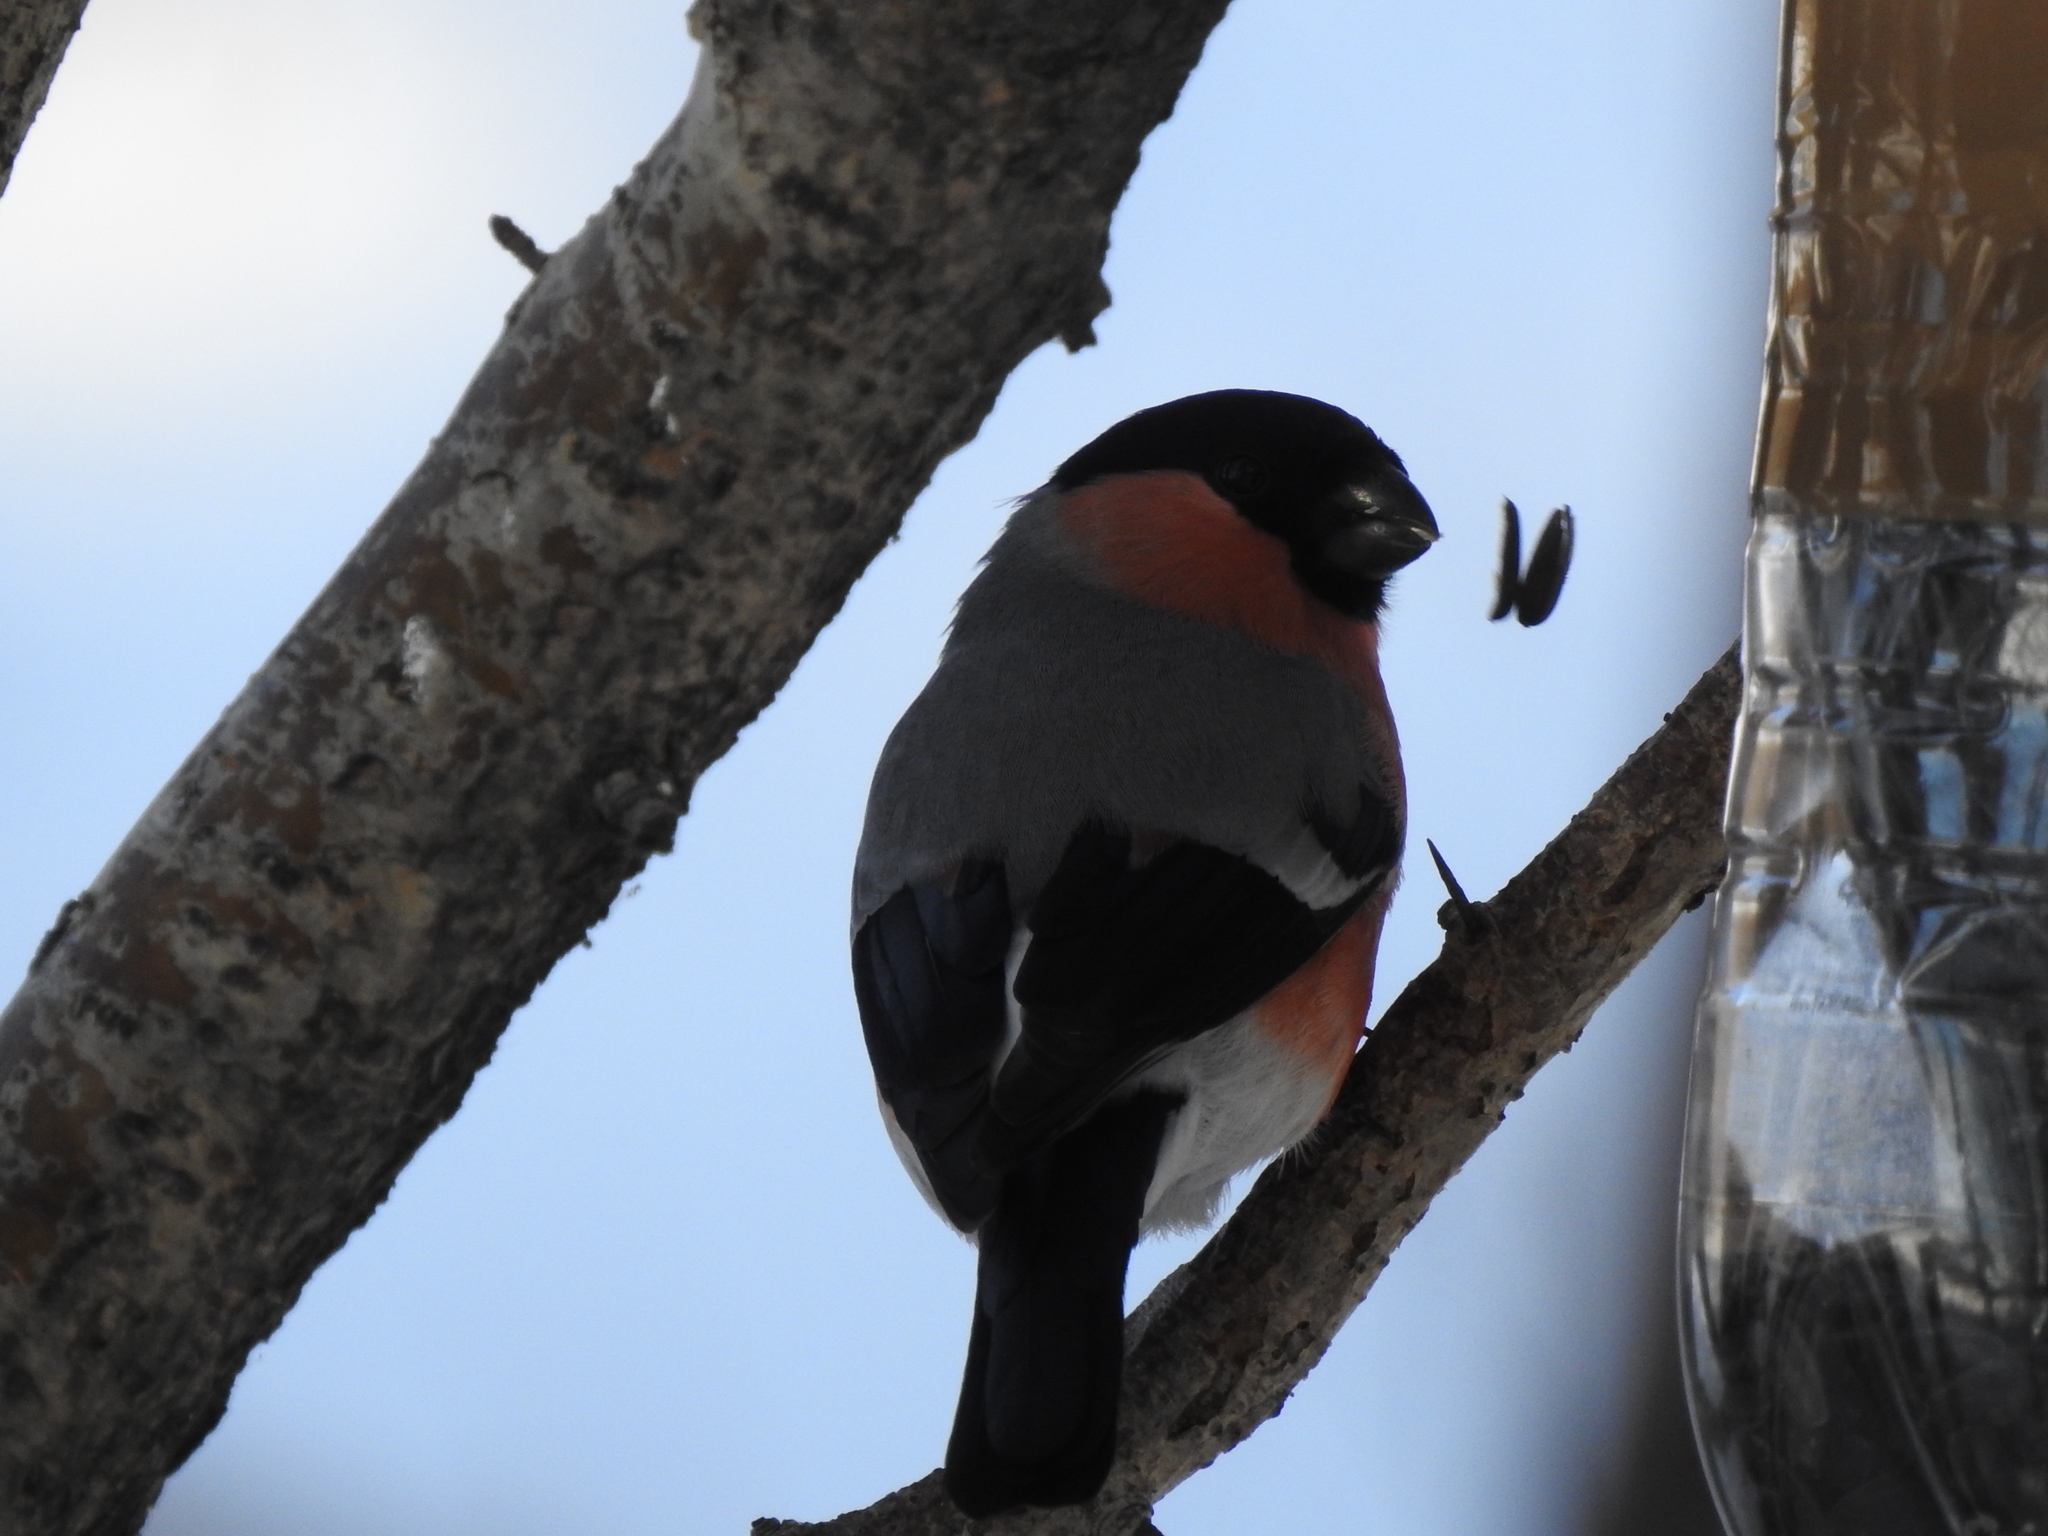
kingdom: Animalia
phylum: Chordata
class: Aves
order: Passeriformes
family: Fringillidae
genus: Pyrrhula
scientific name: Pyrrhula pyrrhula
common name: Eurasian bullfinch
